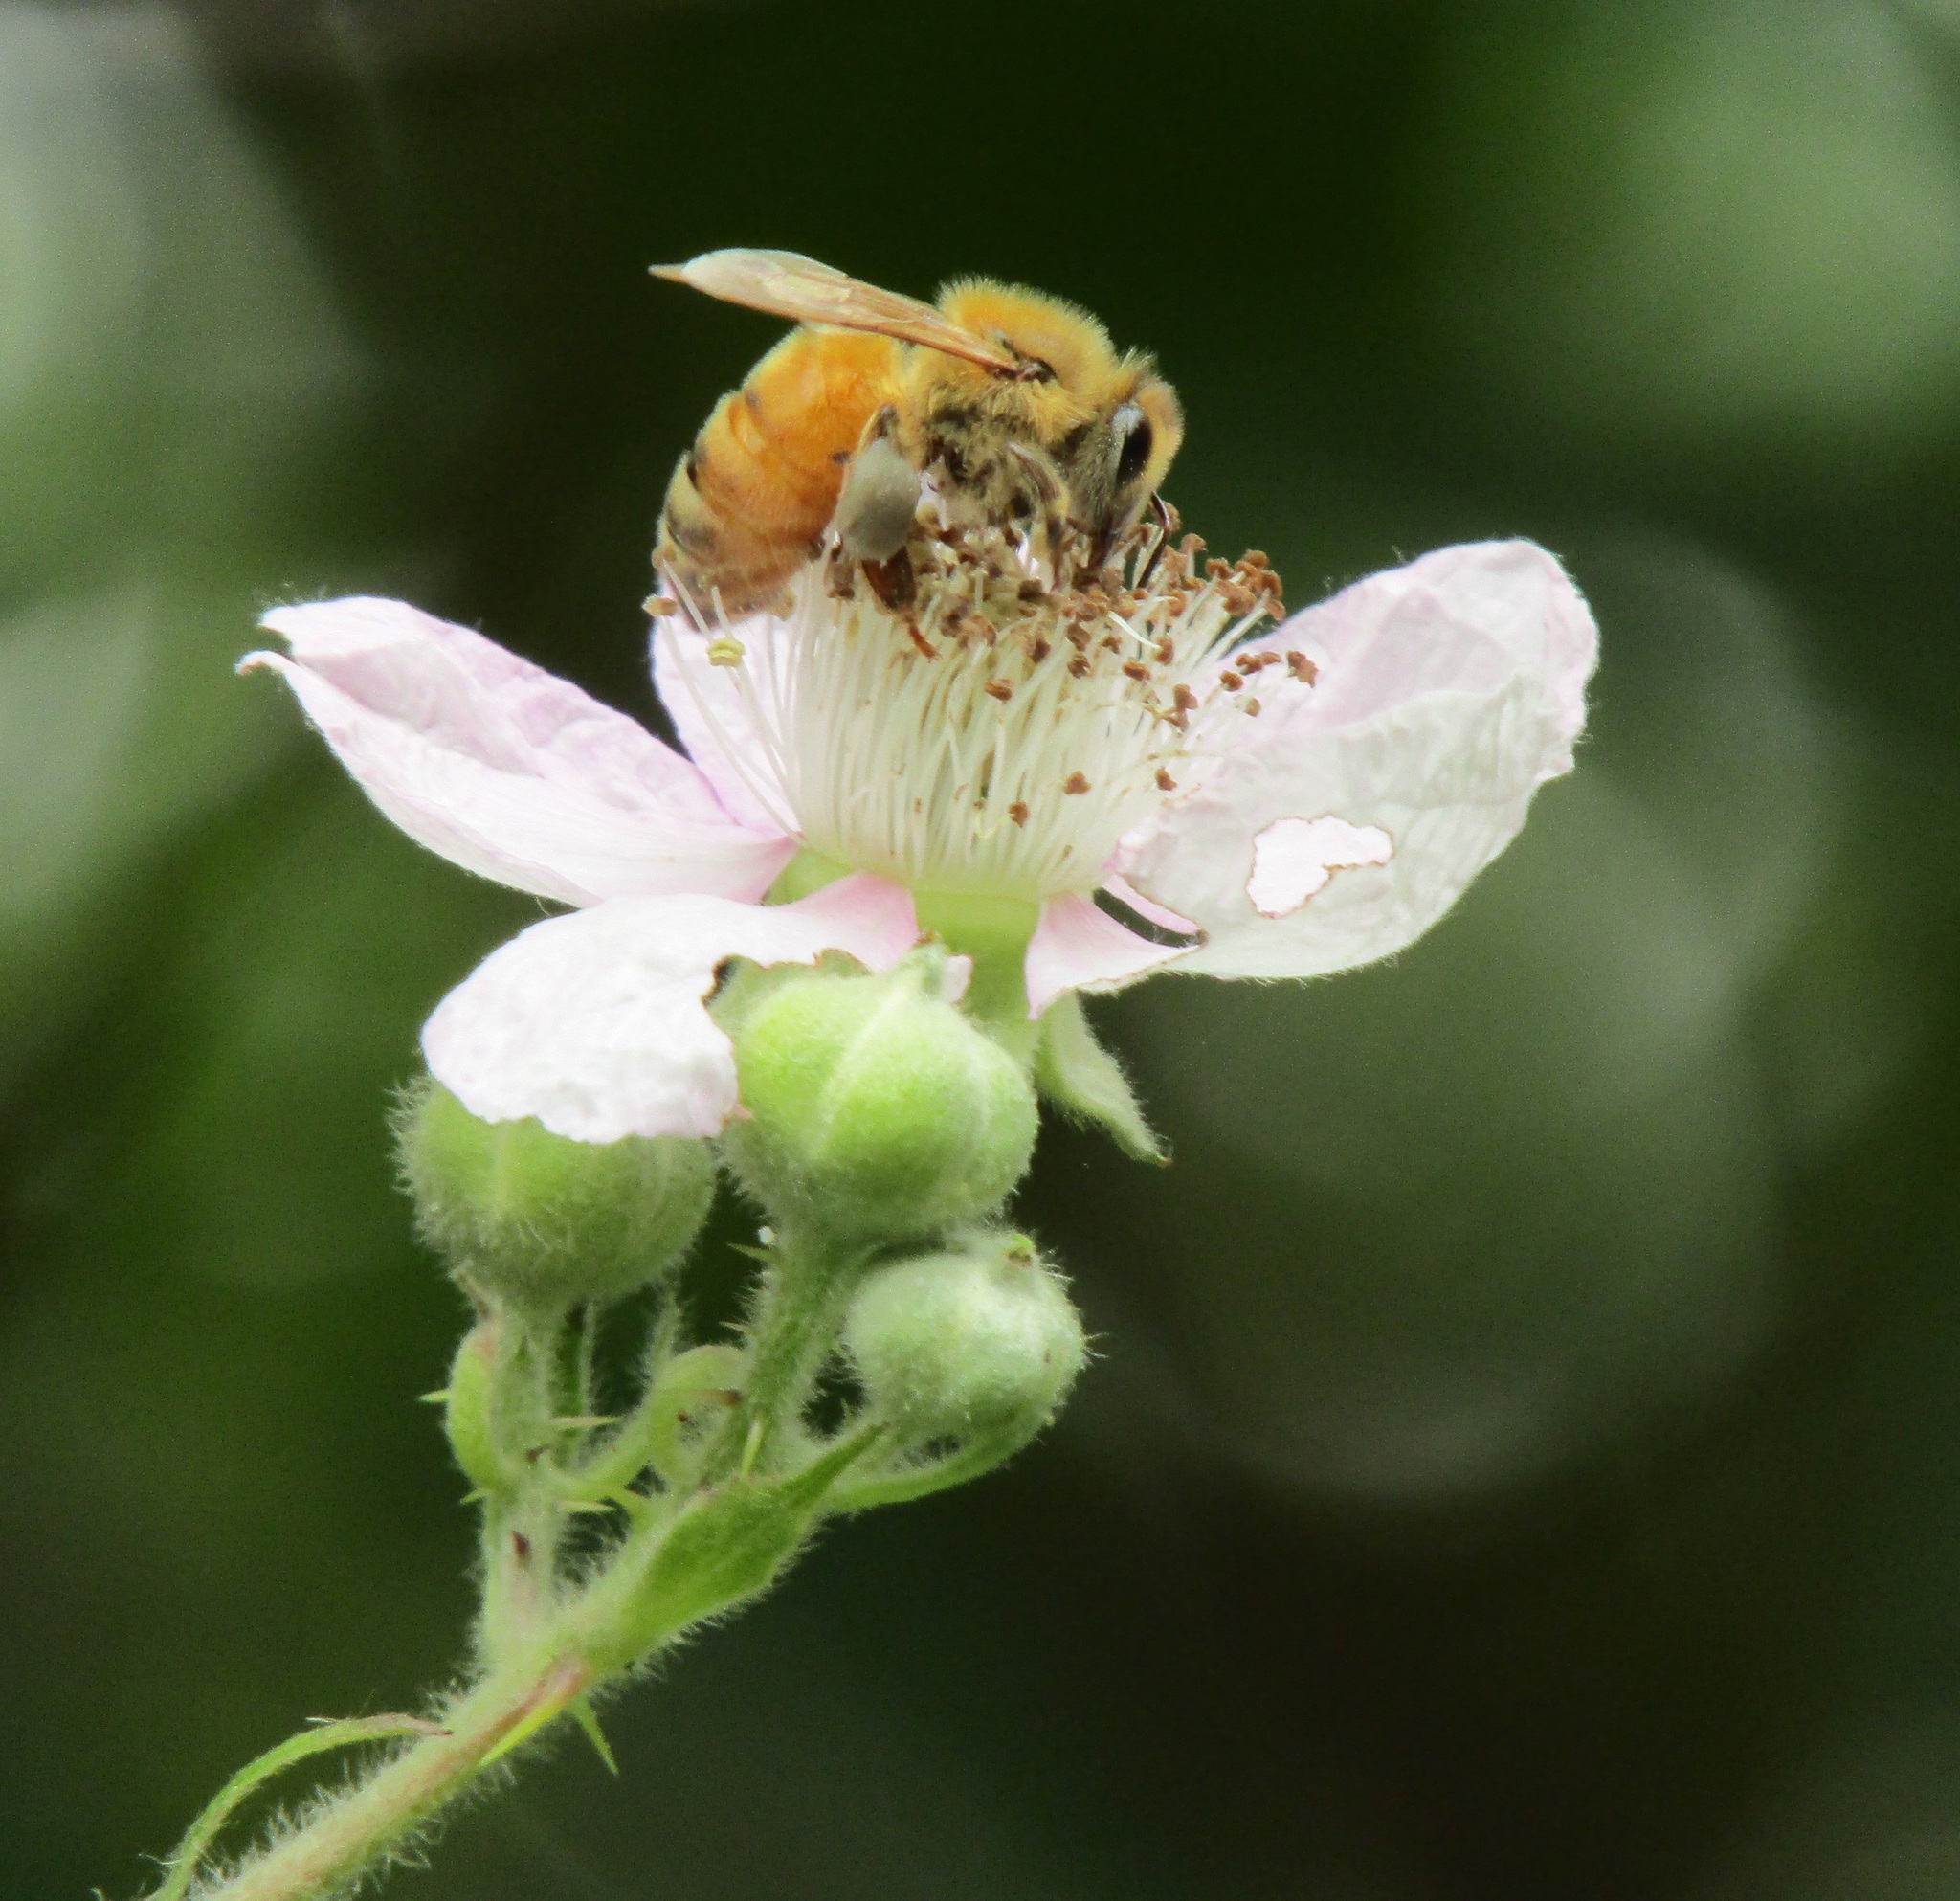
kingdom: Animalia
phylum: Arthropoda
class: Insecta
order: Hymenoptera
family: Apidae
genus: Apis
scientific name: Apis mellifera
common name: Honey bee
